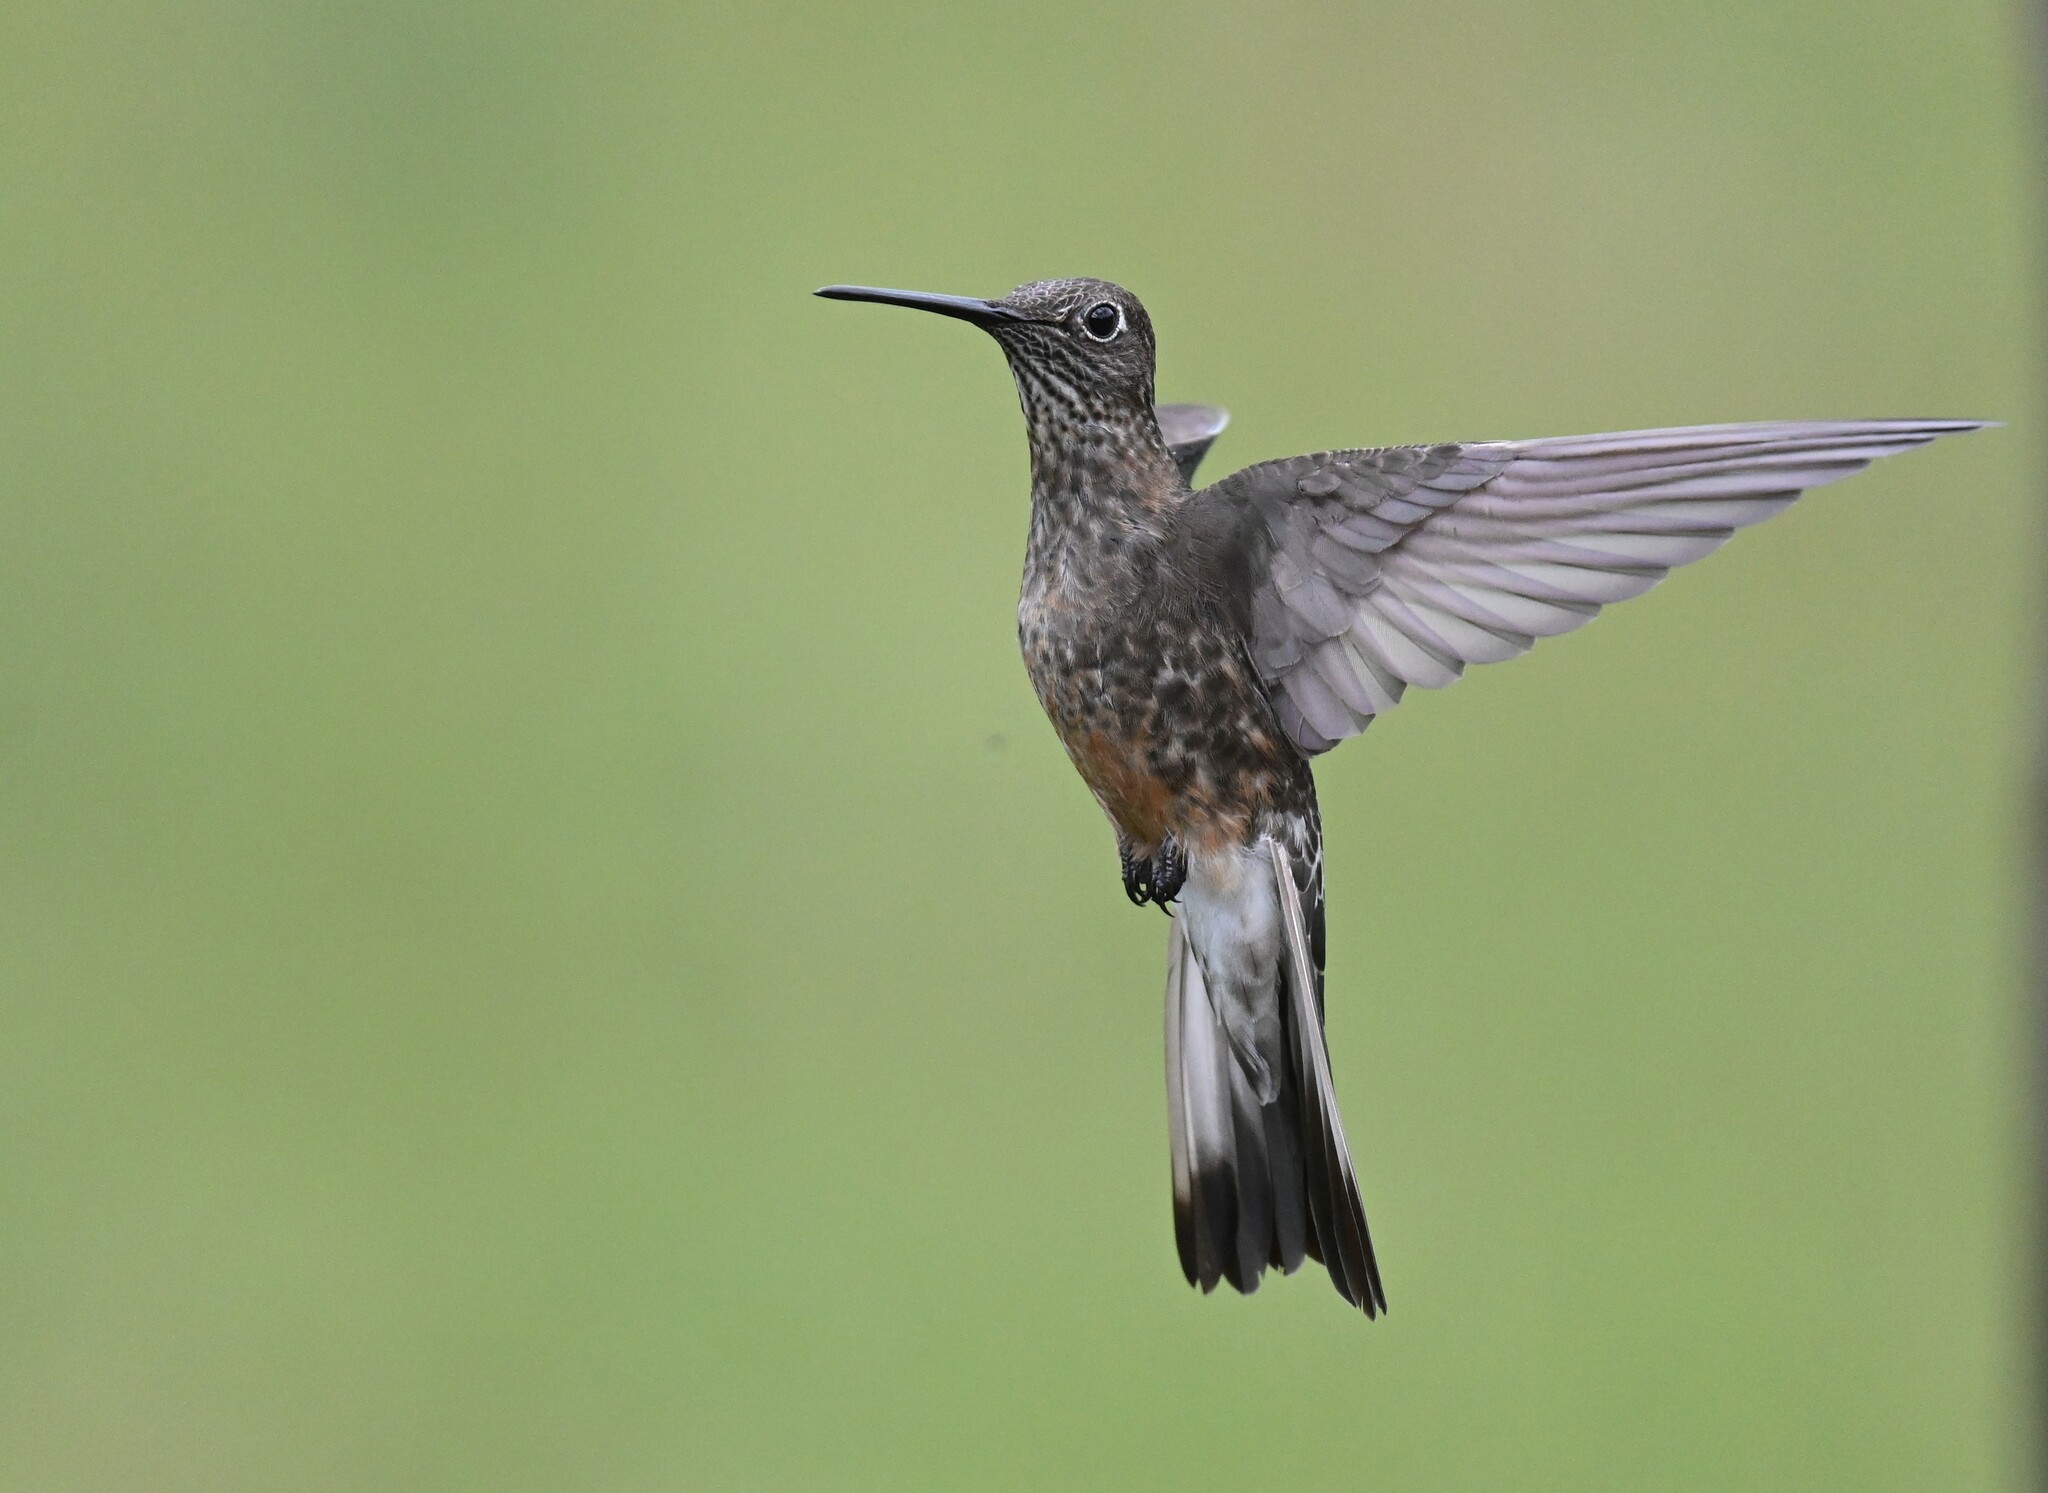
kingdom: Animalia
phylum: Chordata
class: Aves
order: Apodiformes
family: Trochilidae
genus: Patagona
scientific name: Patagona gigas
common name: Giant hummingbird
